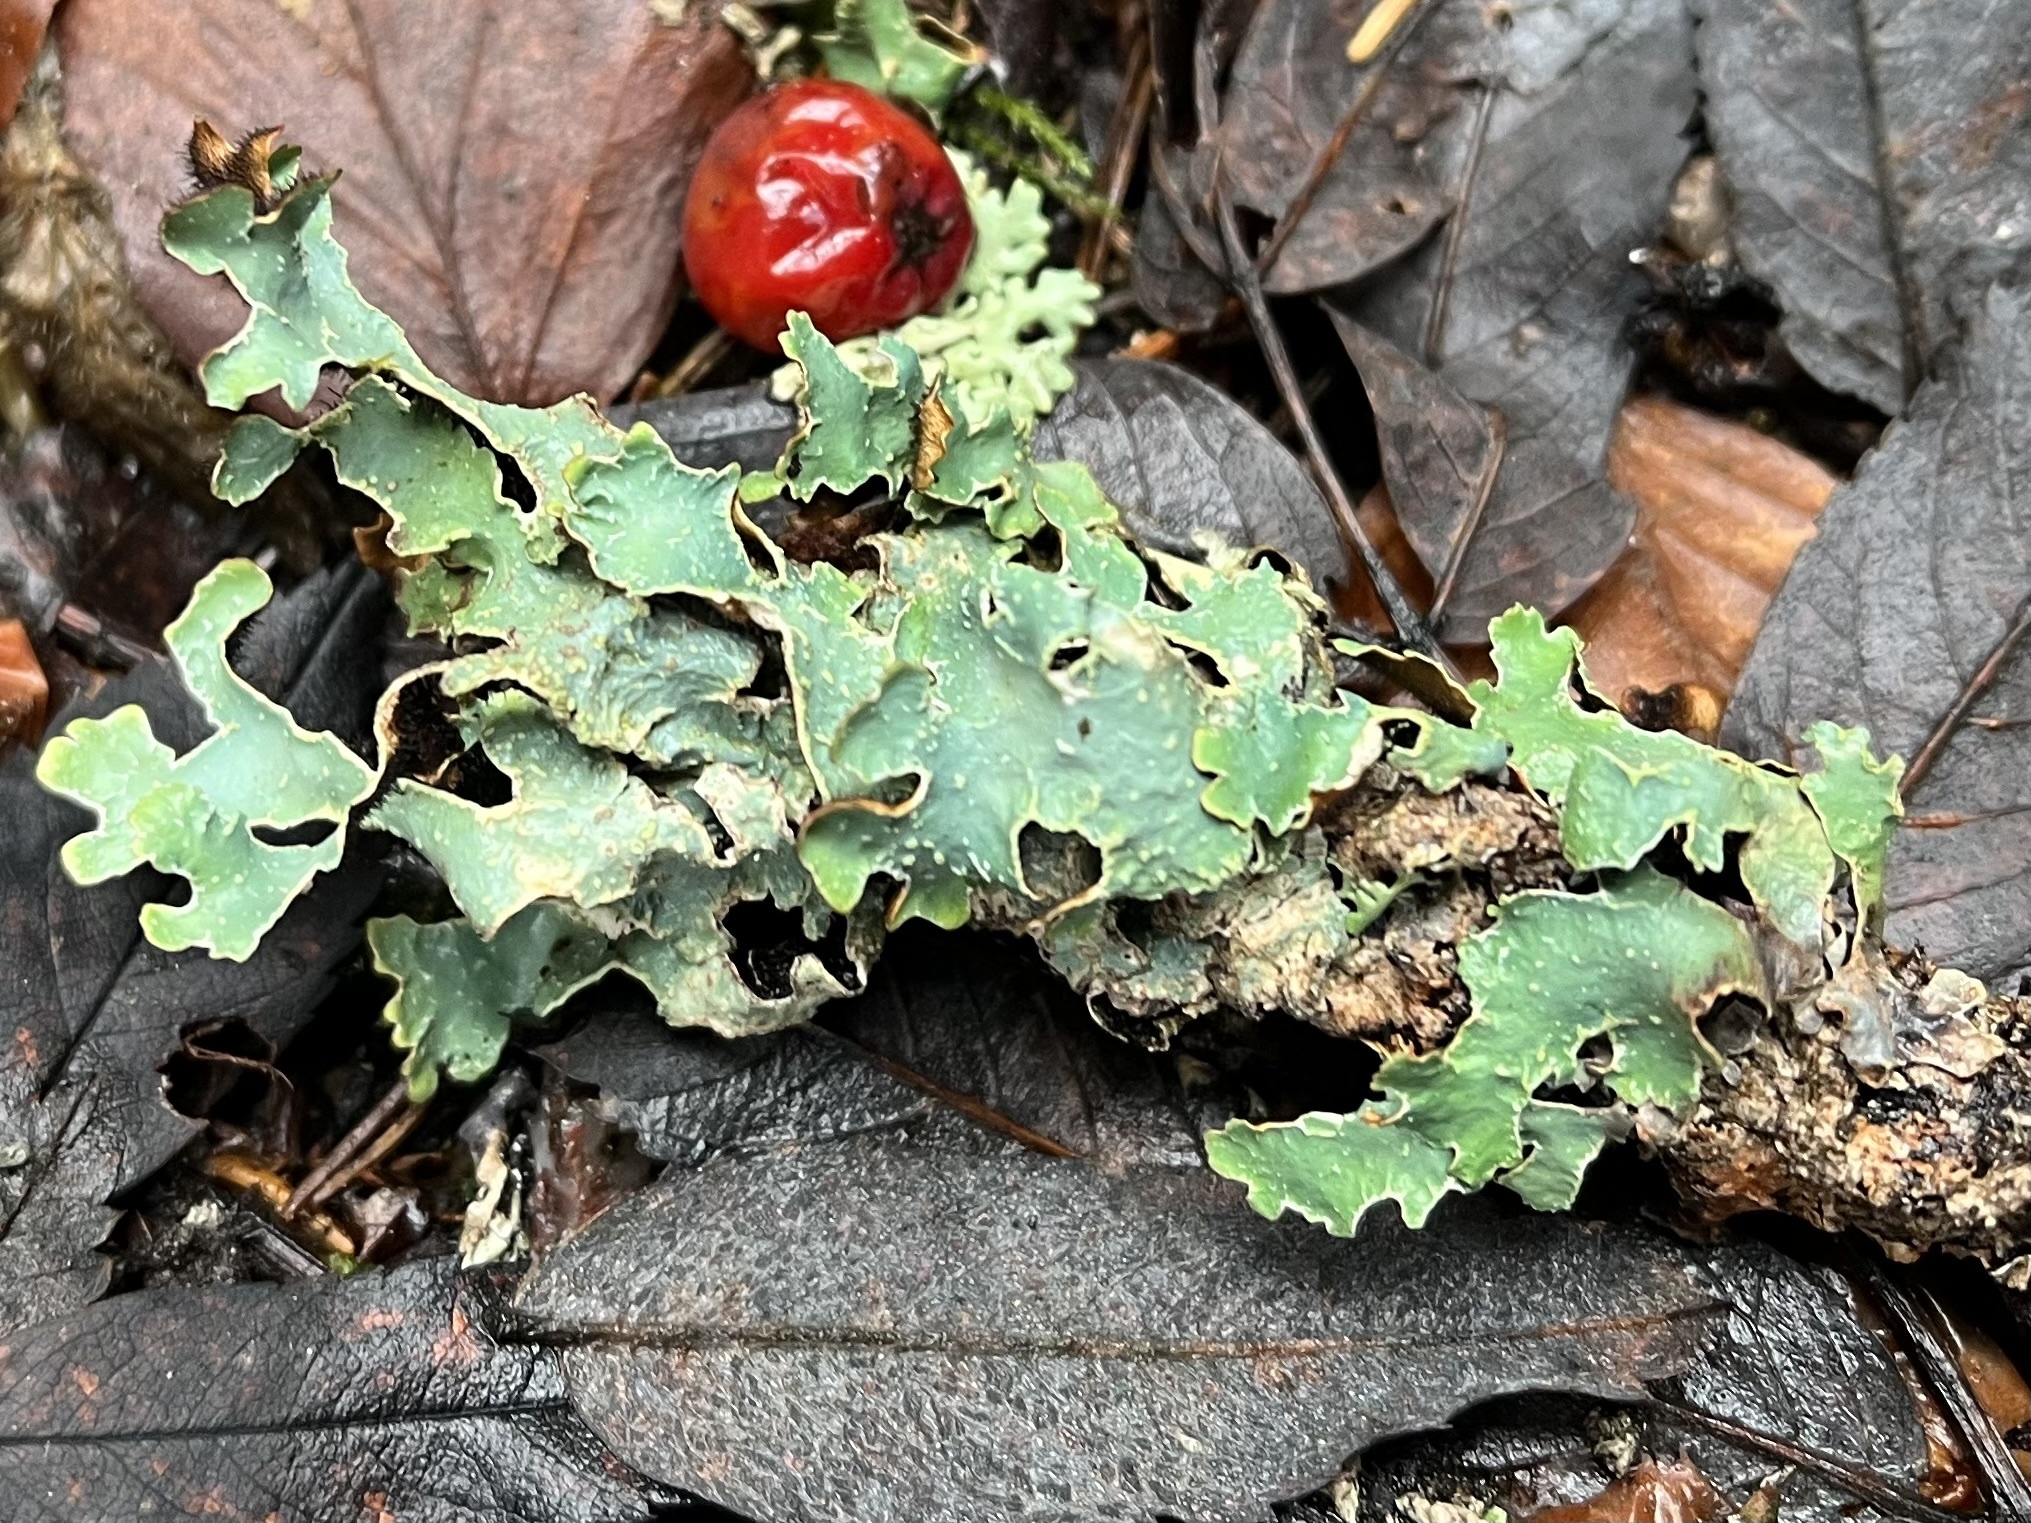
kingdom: Fungi
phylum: Ascomycota
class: Lecanoromycetes
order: Lecanorales
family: Parmeliaceae
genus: Parmelia
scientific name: Parmelia sulcata
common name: Netted shield lichen
